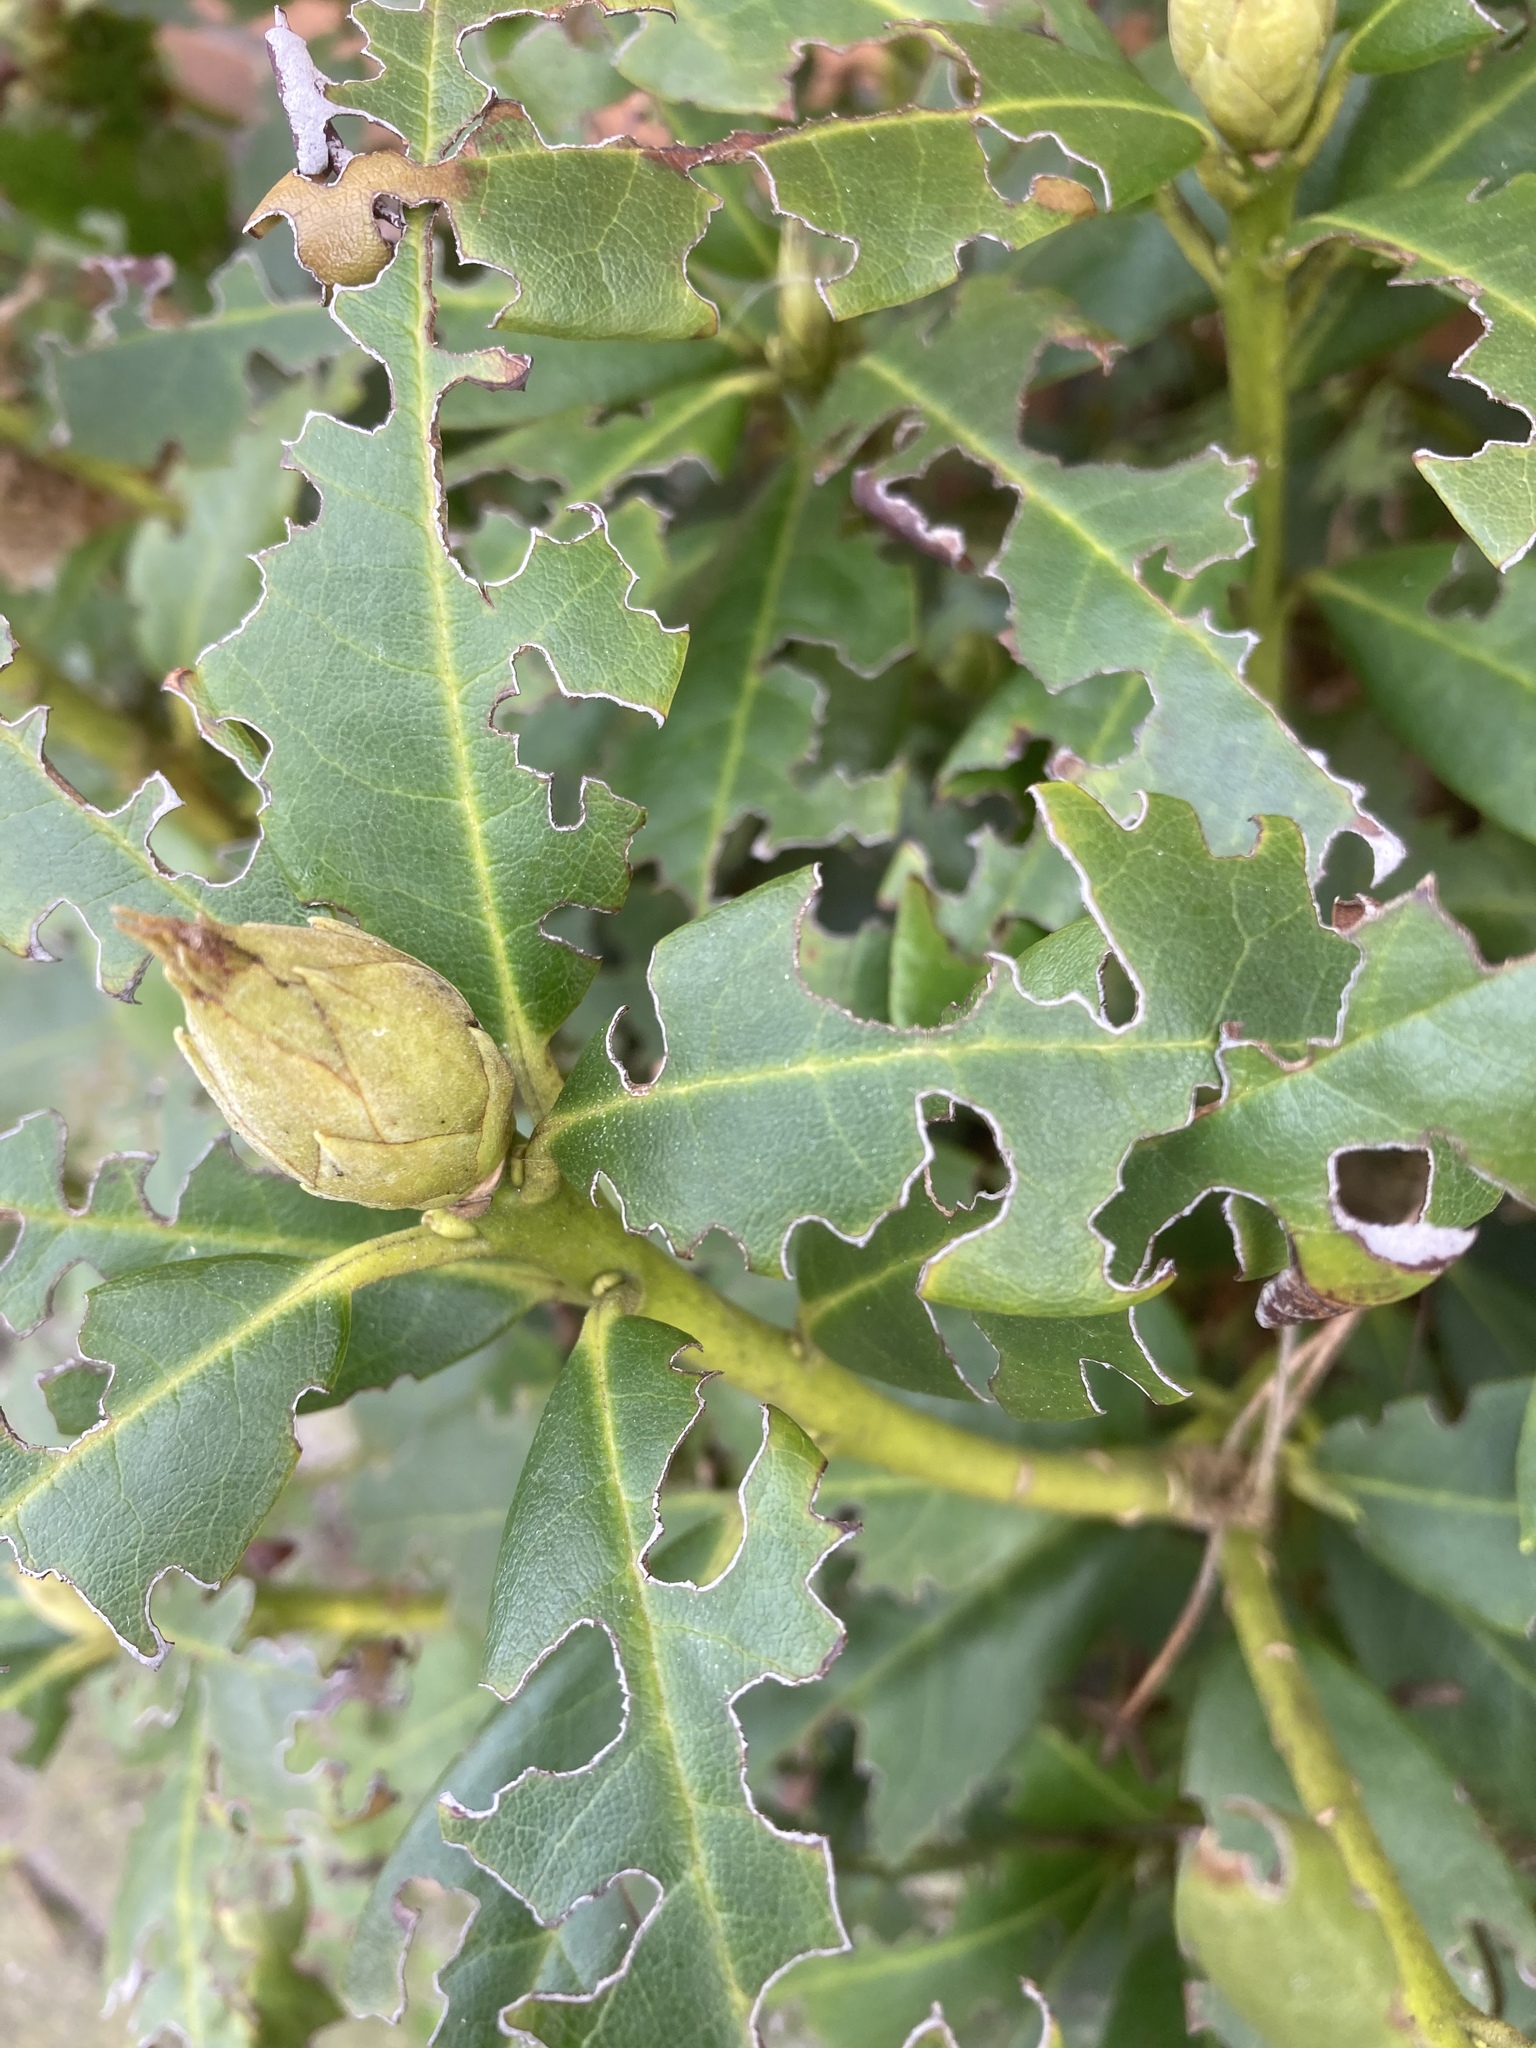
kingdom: Plantae
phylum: Tracheophyta
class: Magnoliopsida
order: Ericales
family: Ericaceae
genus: Rhododendron
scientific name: Rhododendron ponticum
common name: Rhododendron
